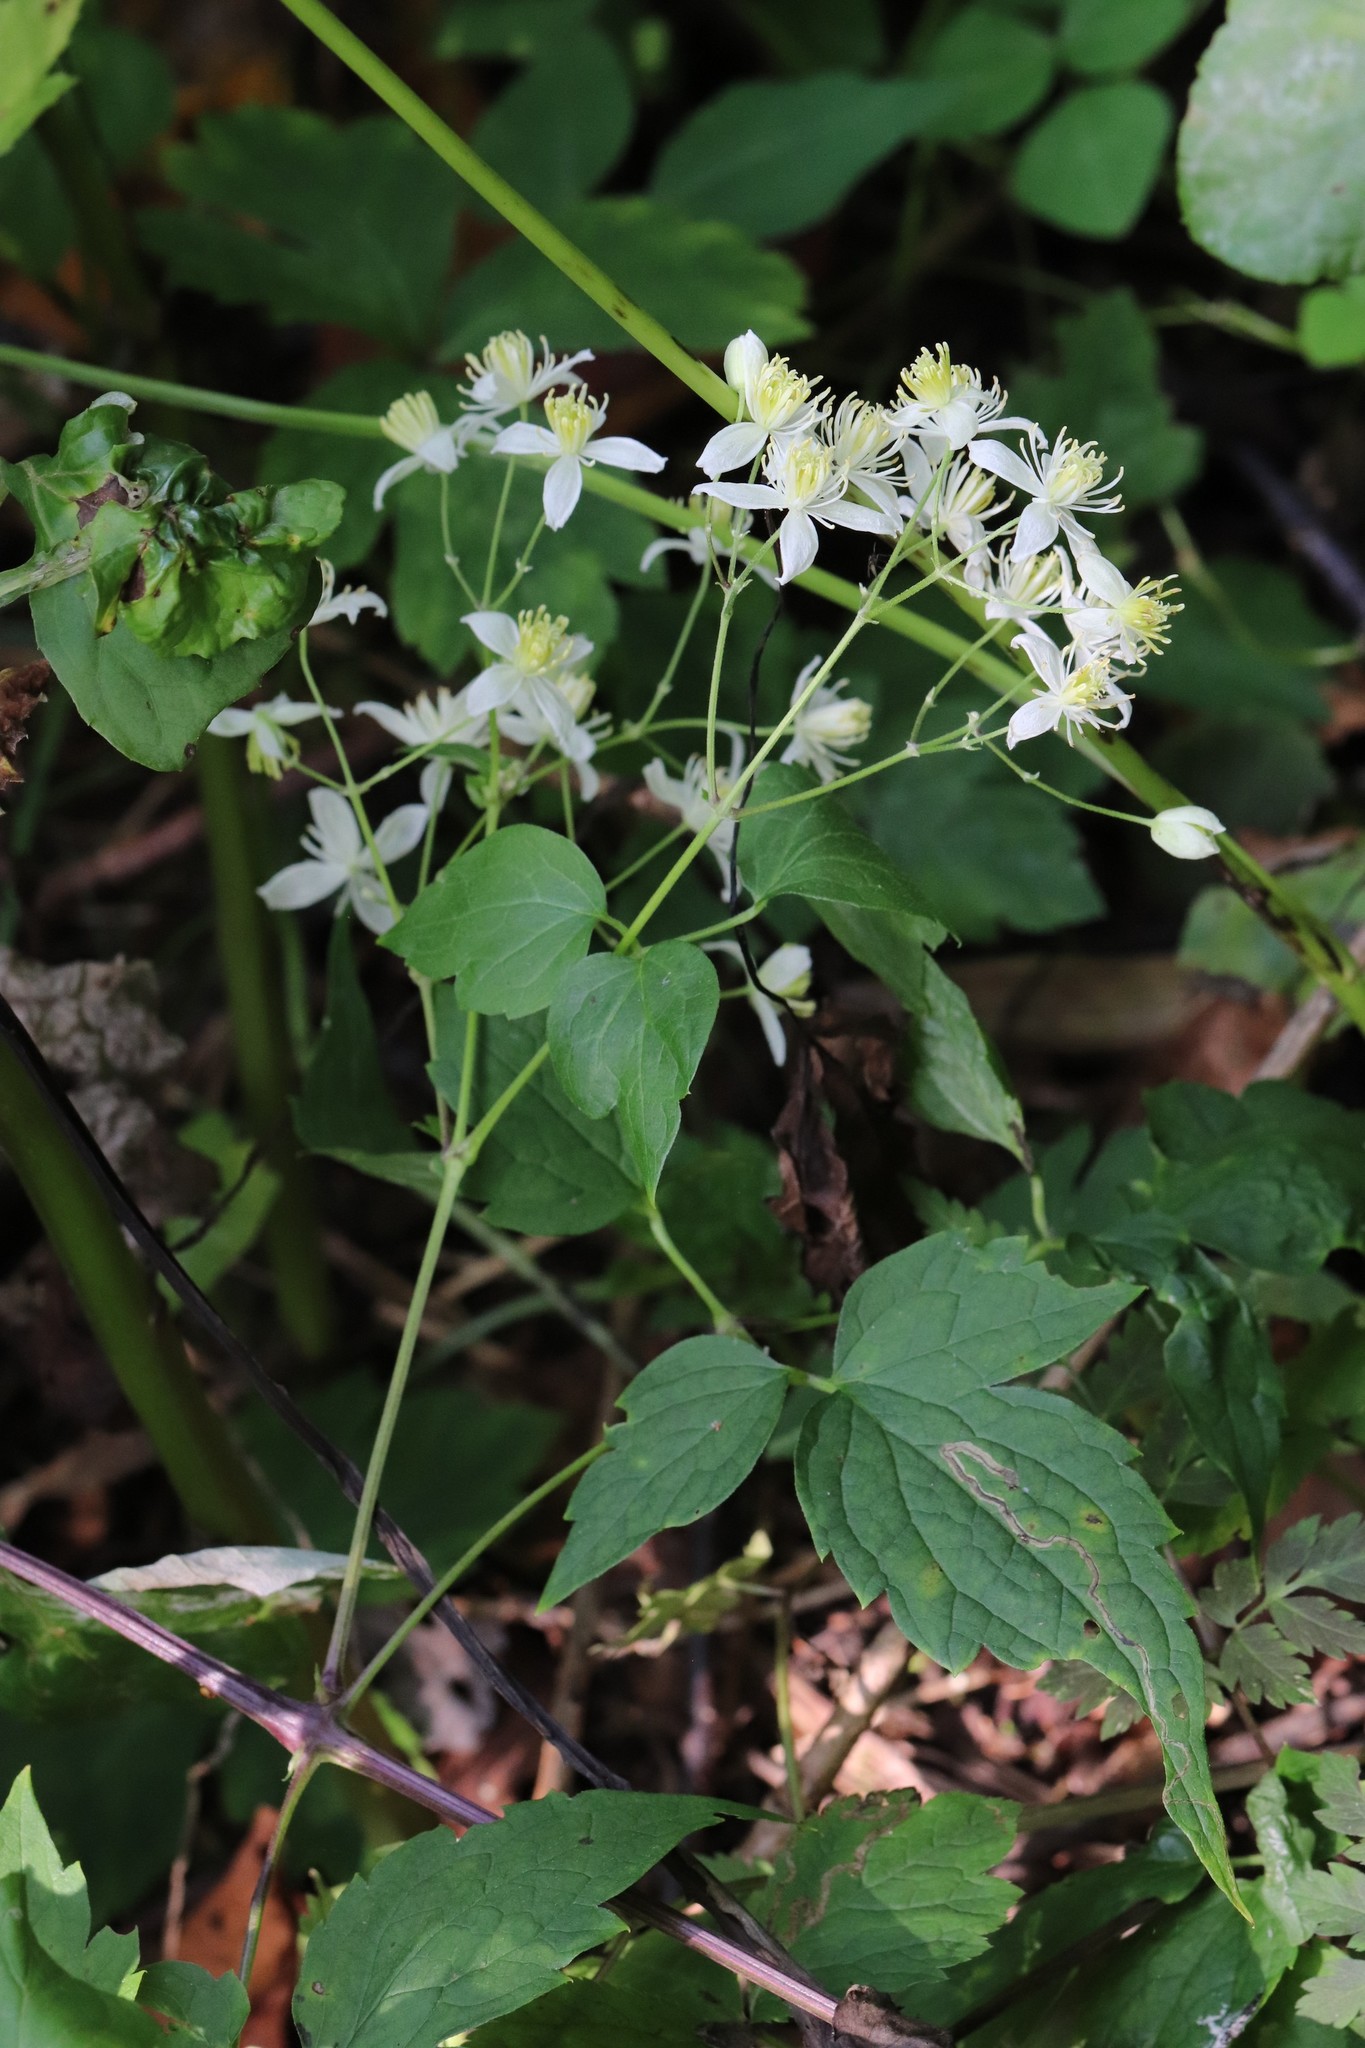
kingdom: Plantae
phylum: Tracheophyta
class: Magnoliopsida
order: Ranunculales
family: Ranunculaceae
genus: Clematis
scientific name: Clematis brevicaudata
